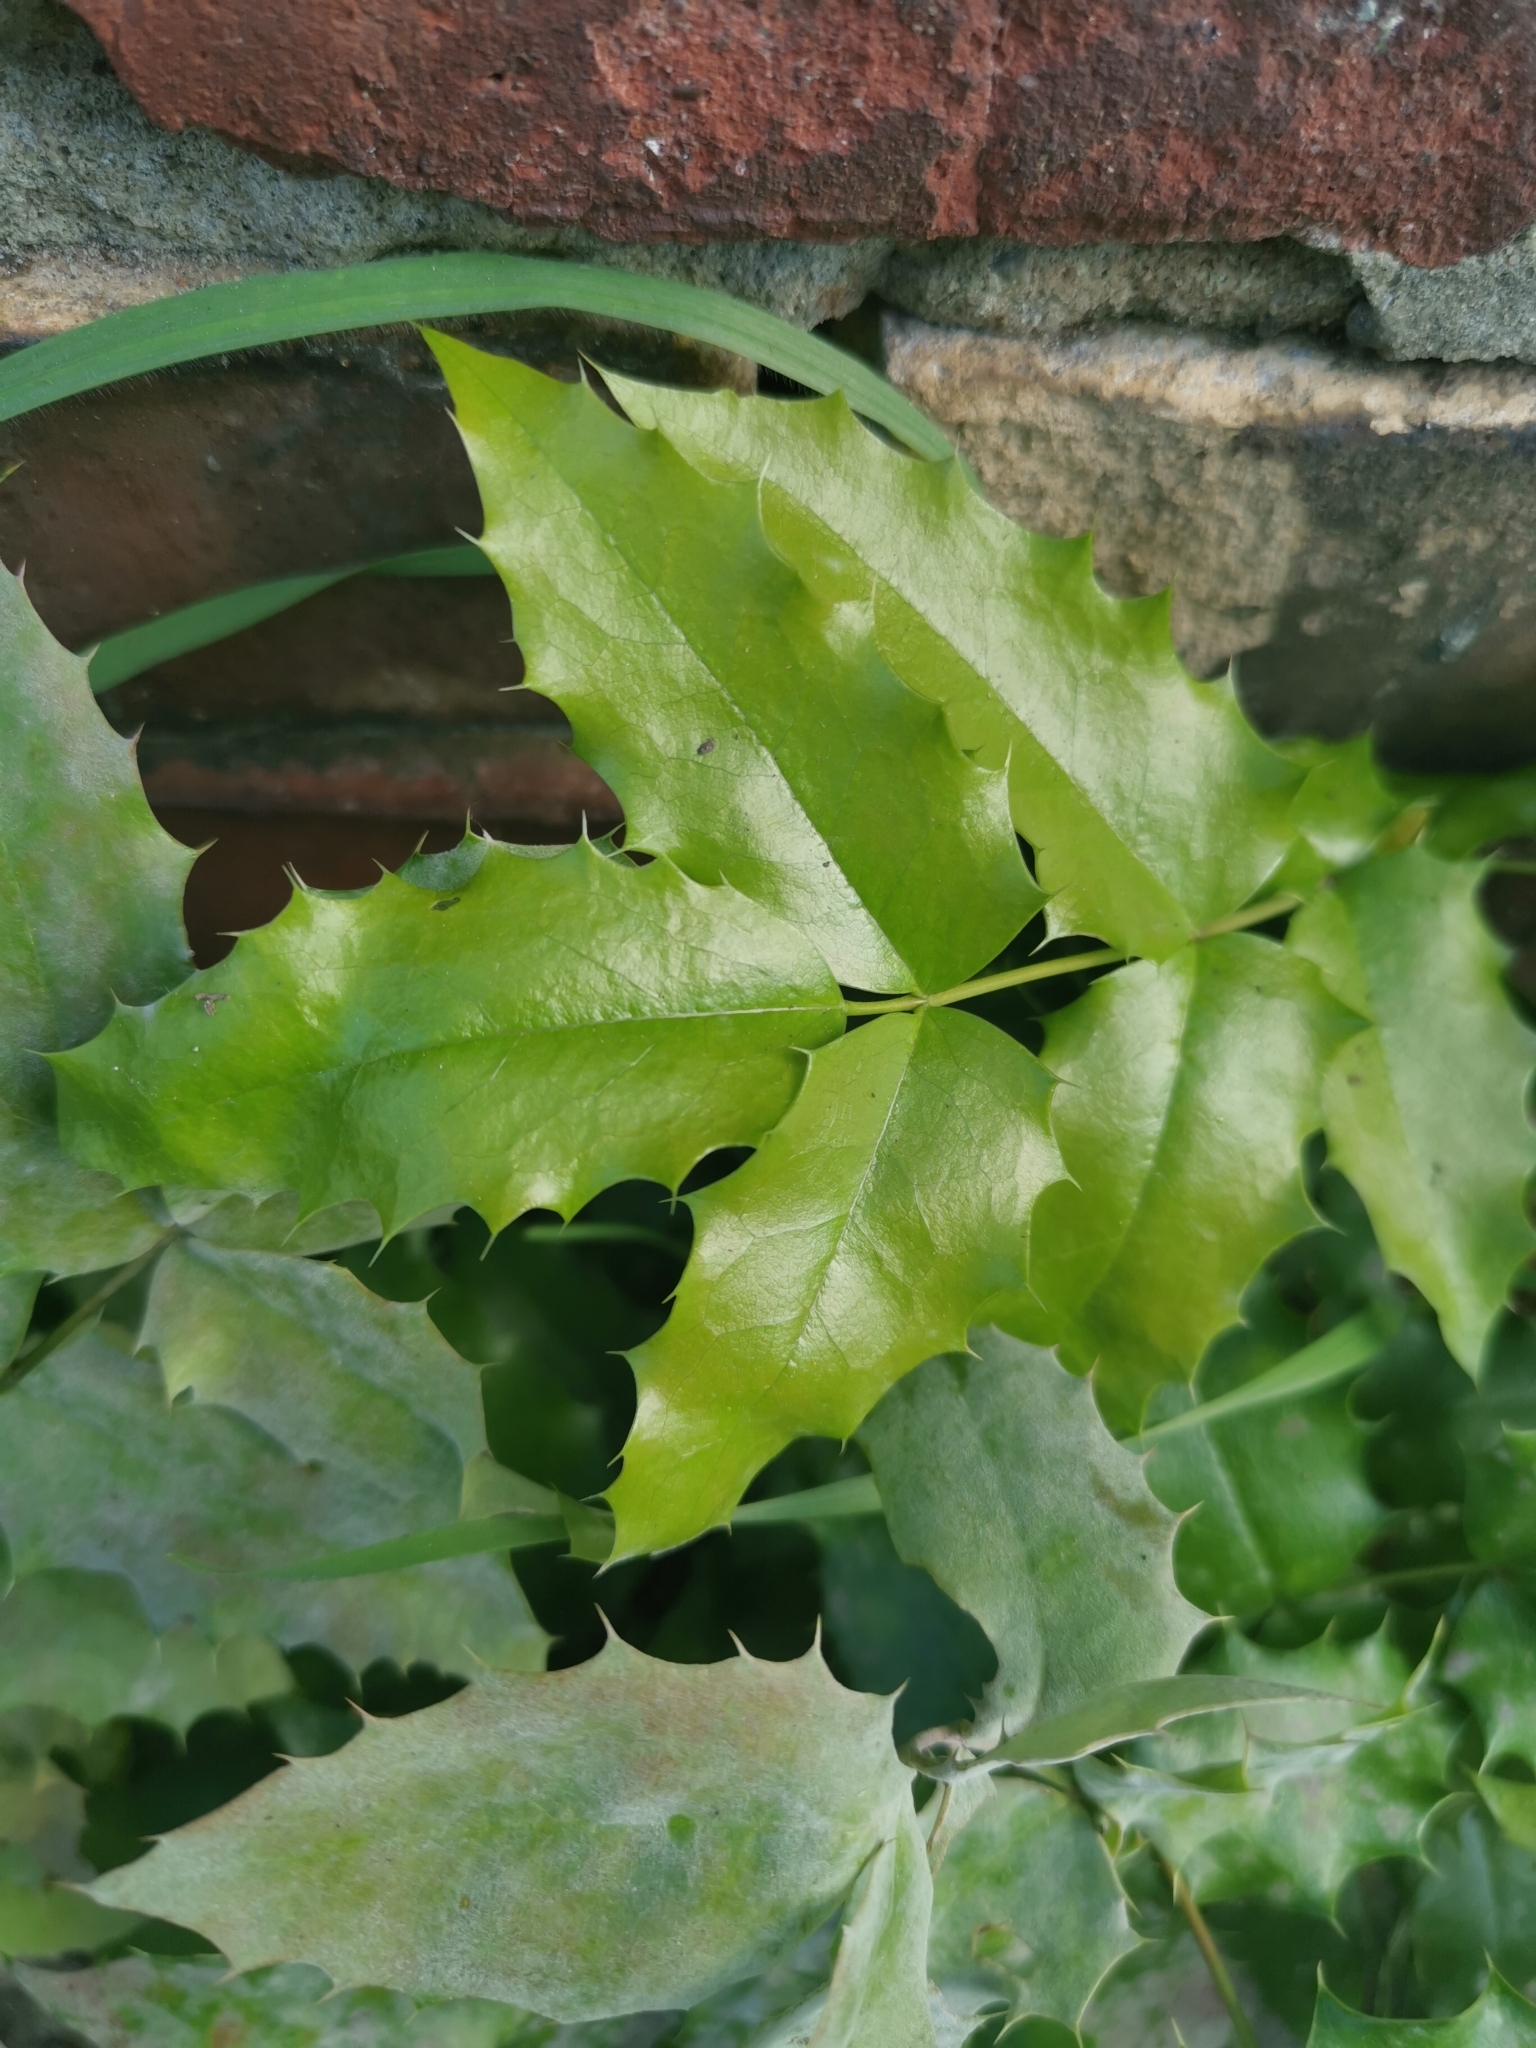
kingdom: Plantae
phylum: Tracheophyta
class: Magnoliopsida
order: Ranunculales
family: Berberidaceae
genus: Mahonia
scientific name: Mahonia aquifolium
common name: Oregon-grape
